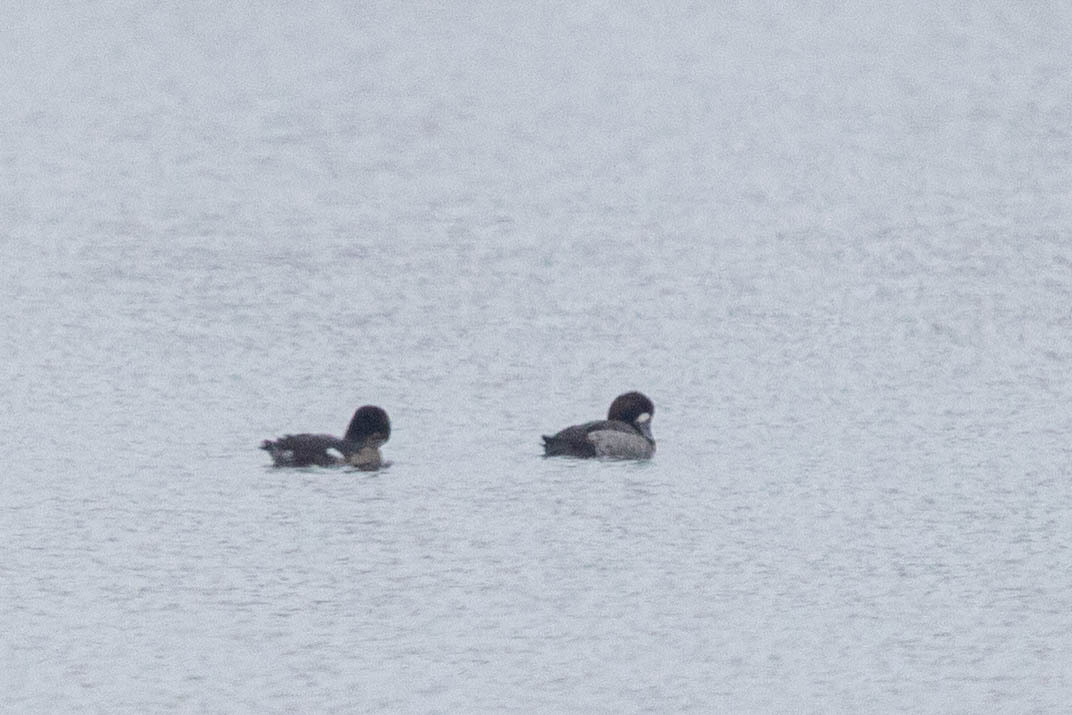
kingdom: Animalia
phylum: Chordata
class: Aves
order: Anseriformes
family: Anatidae
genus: Aythya
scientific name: Aythya marila
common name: Greater scaup
